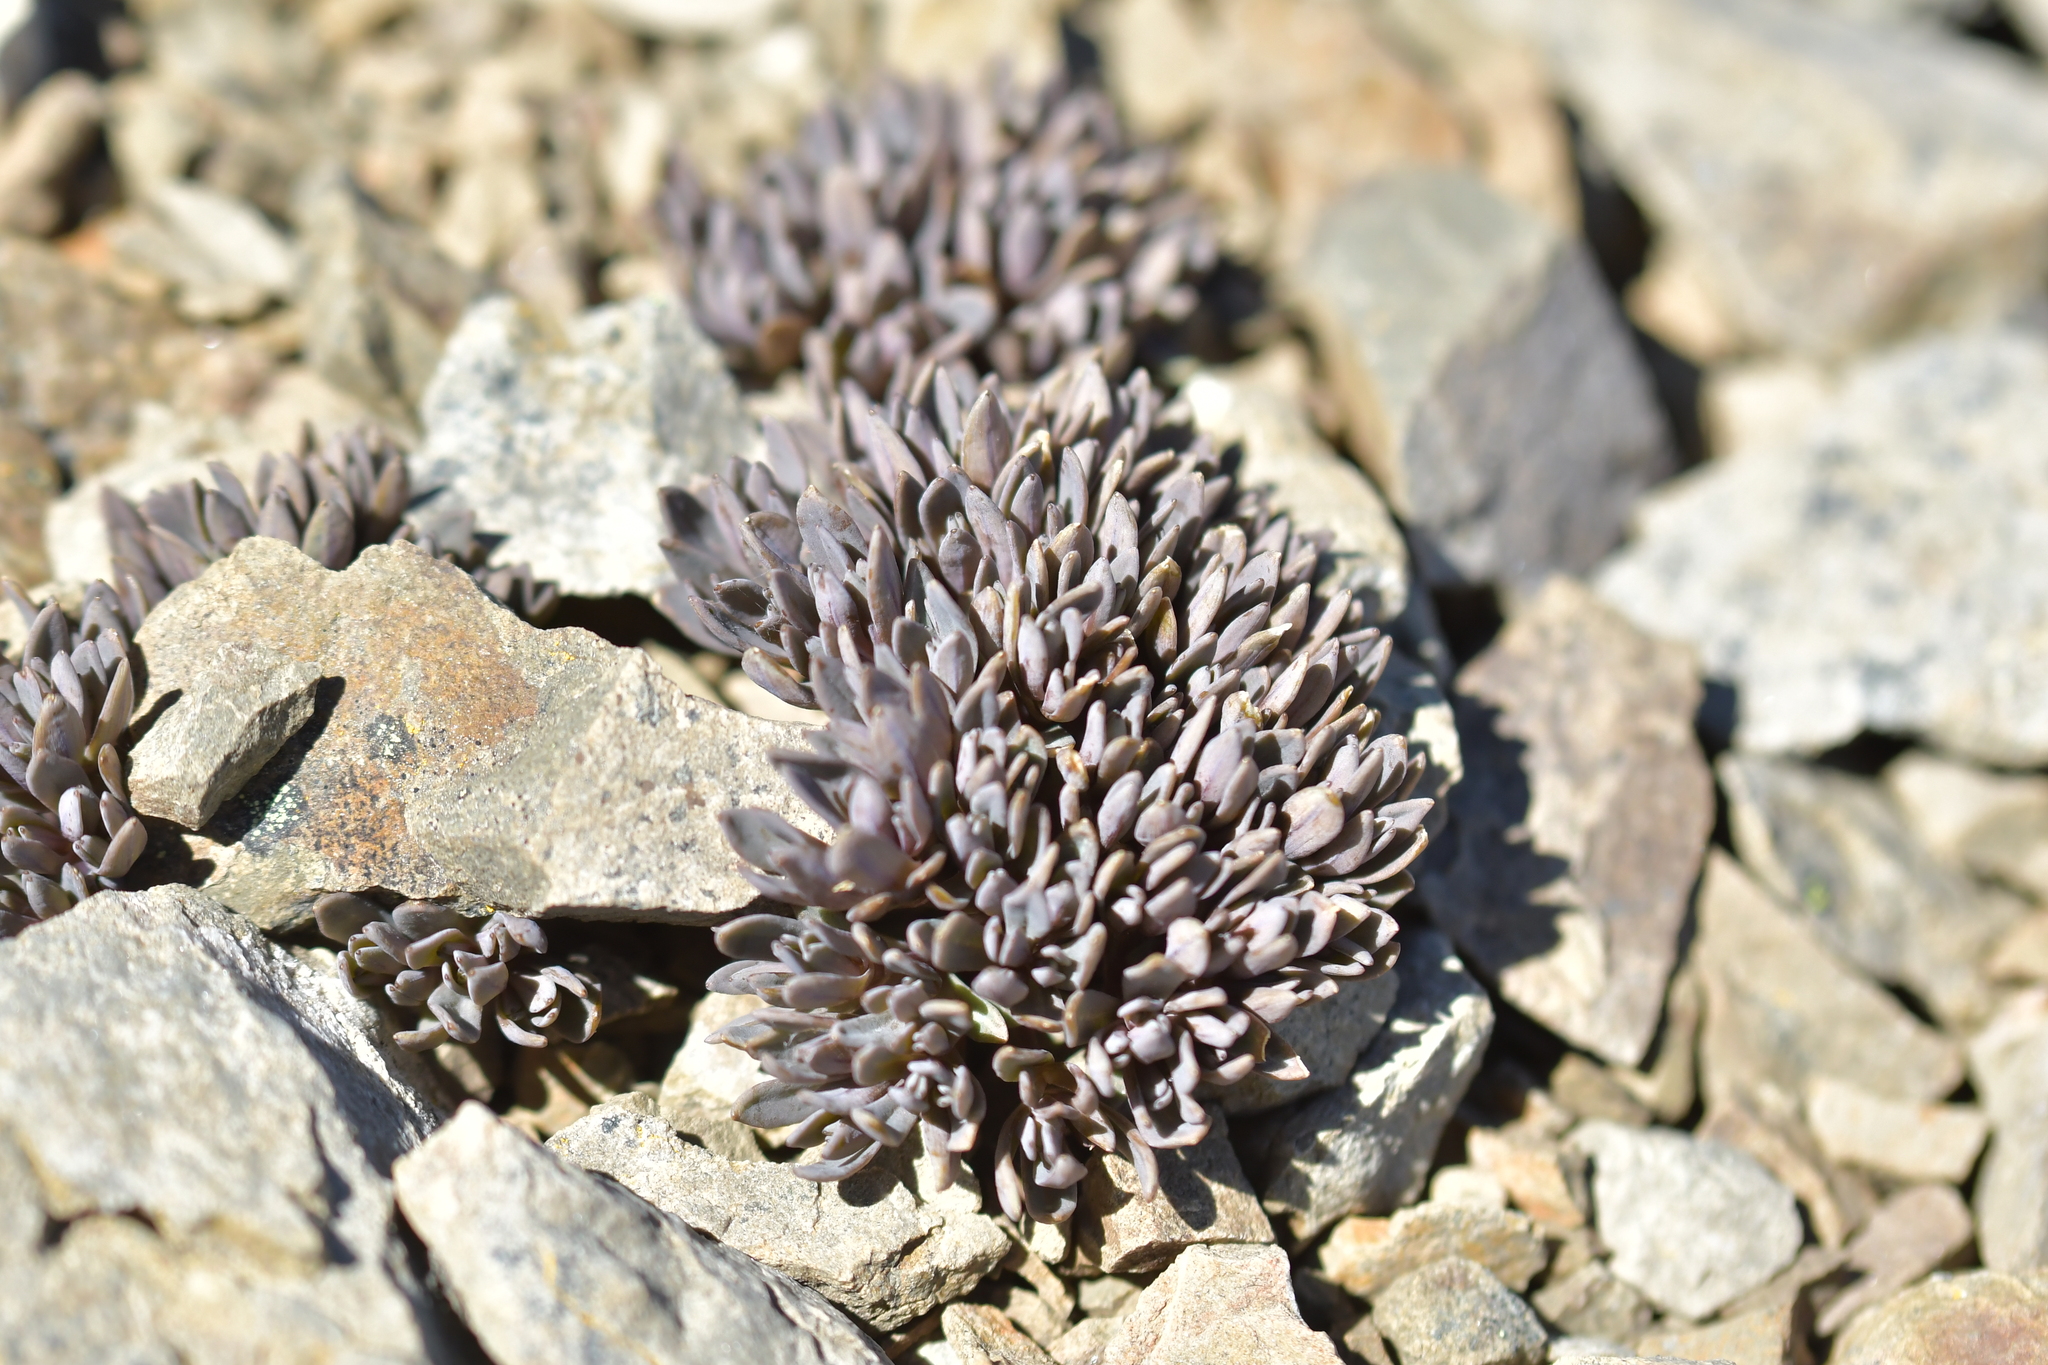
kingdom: Plantae
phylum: Tracheophyta
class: Magnoliopsida
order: Caryophyllales
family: Caryophyllaceae
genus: Stellaria
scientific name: Stellaria roughii
